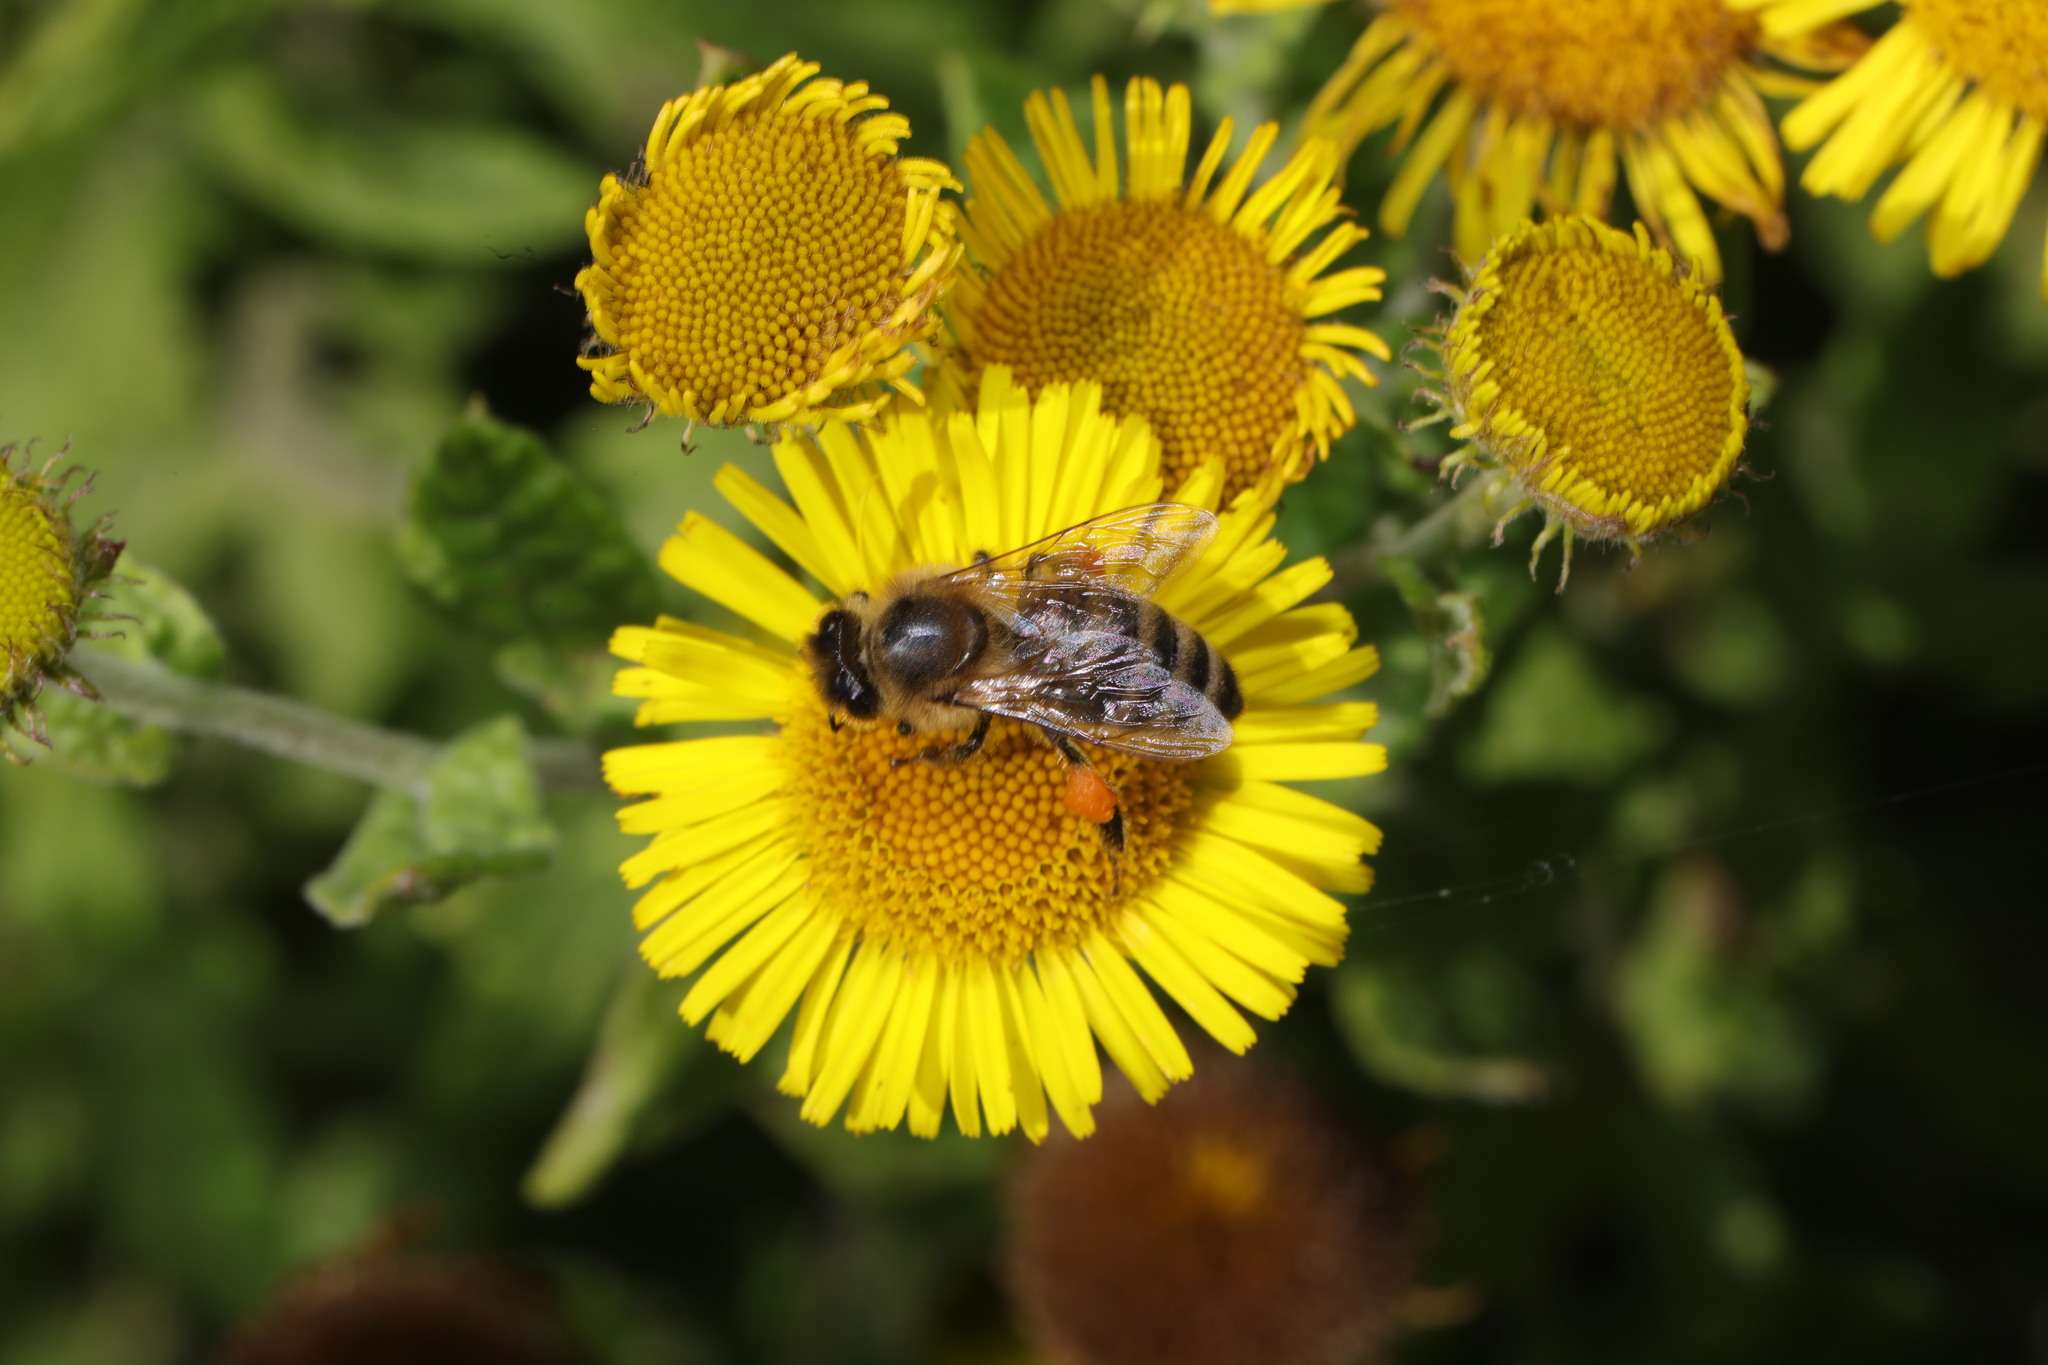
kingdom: Animalia
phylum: Arthropoda
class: Insecta
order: Hymenoptera
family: Apidae
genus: Apis
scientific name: Apis mellifera
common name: Honey bee
